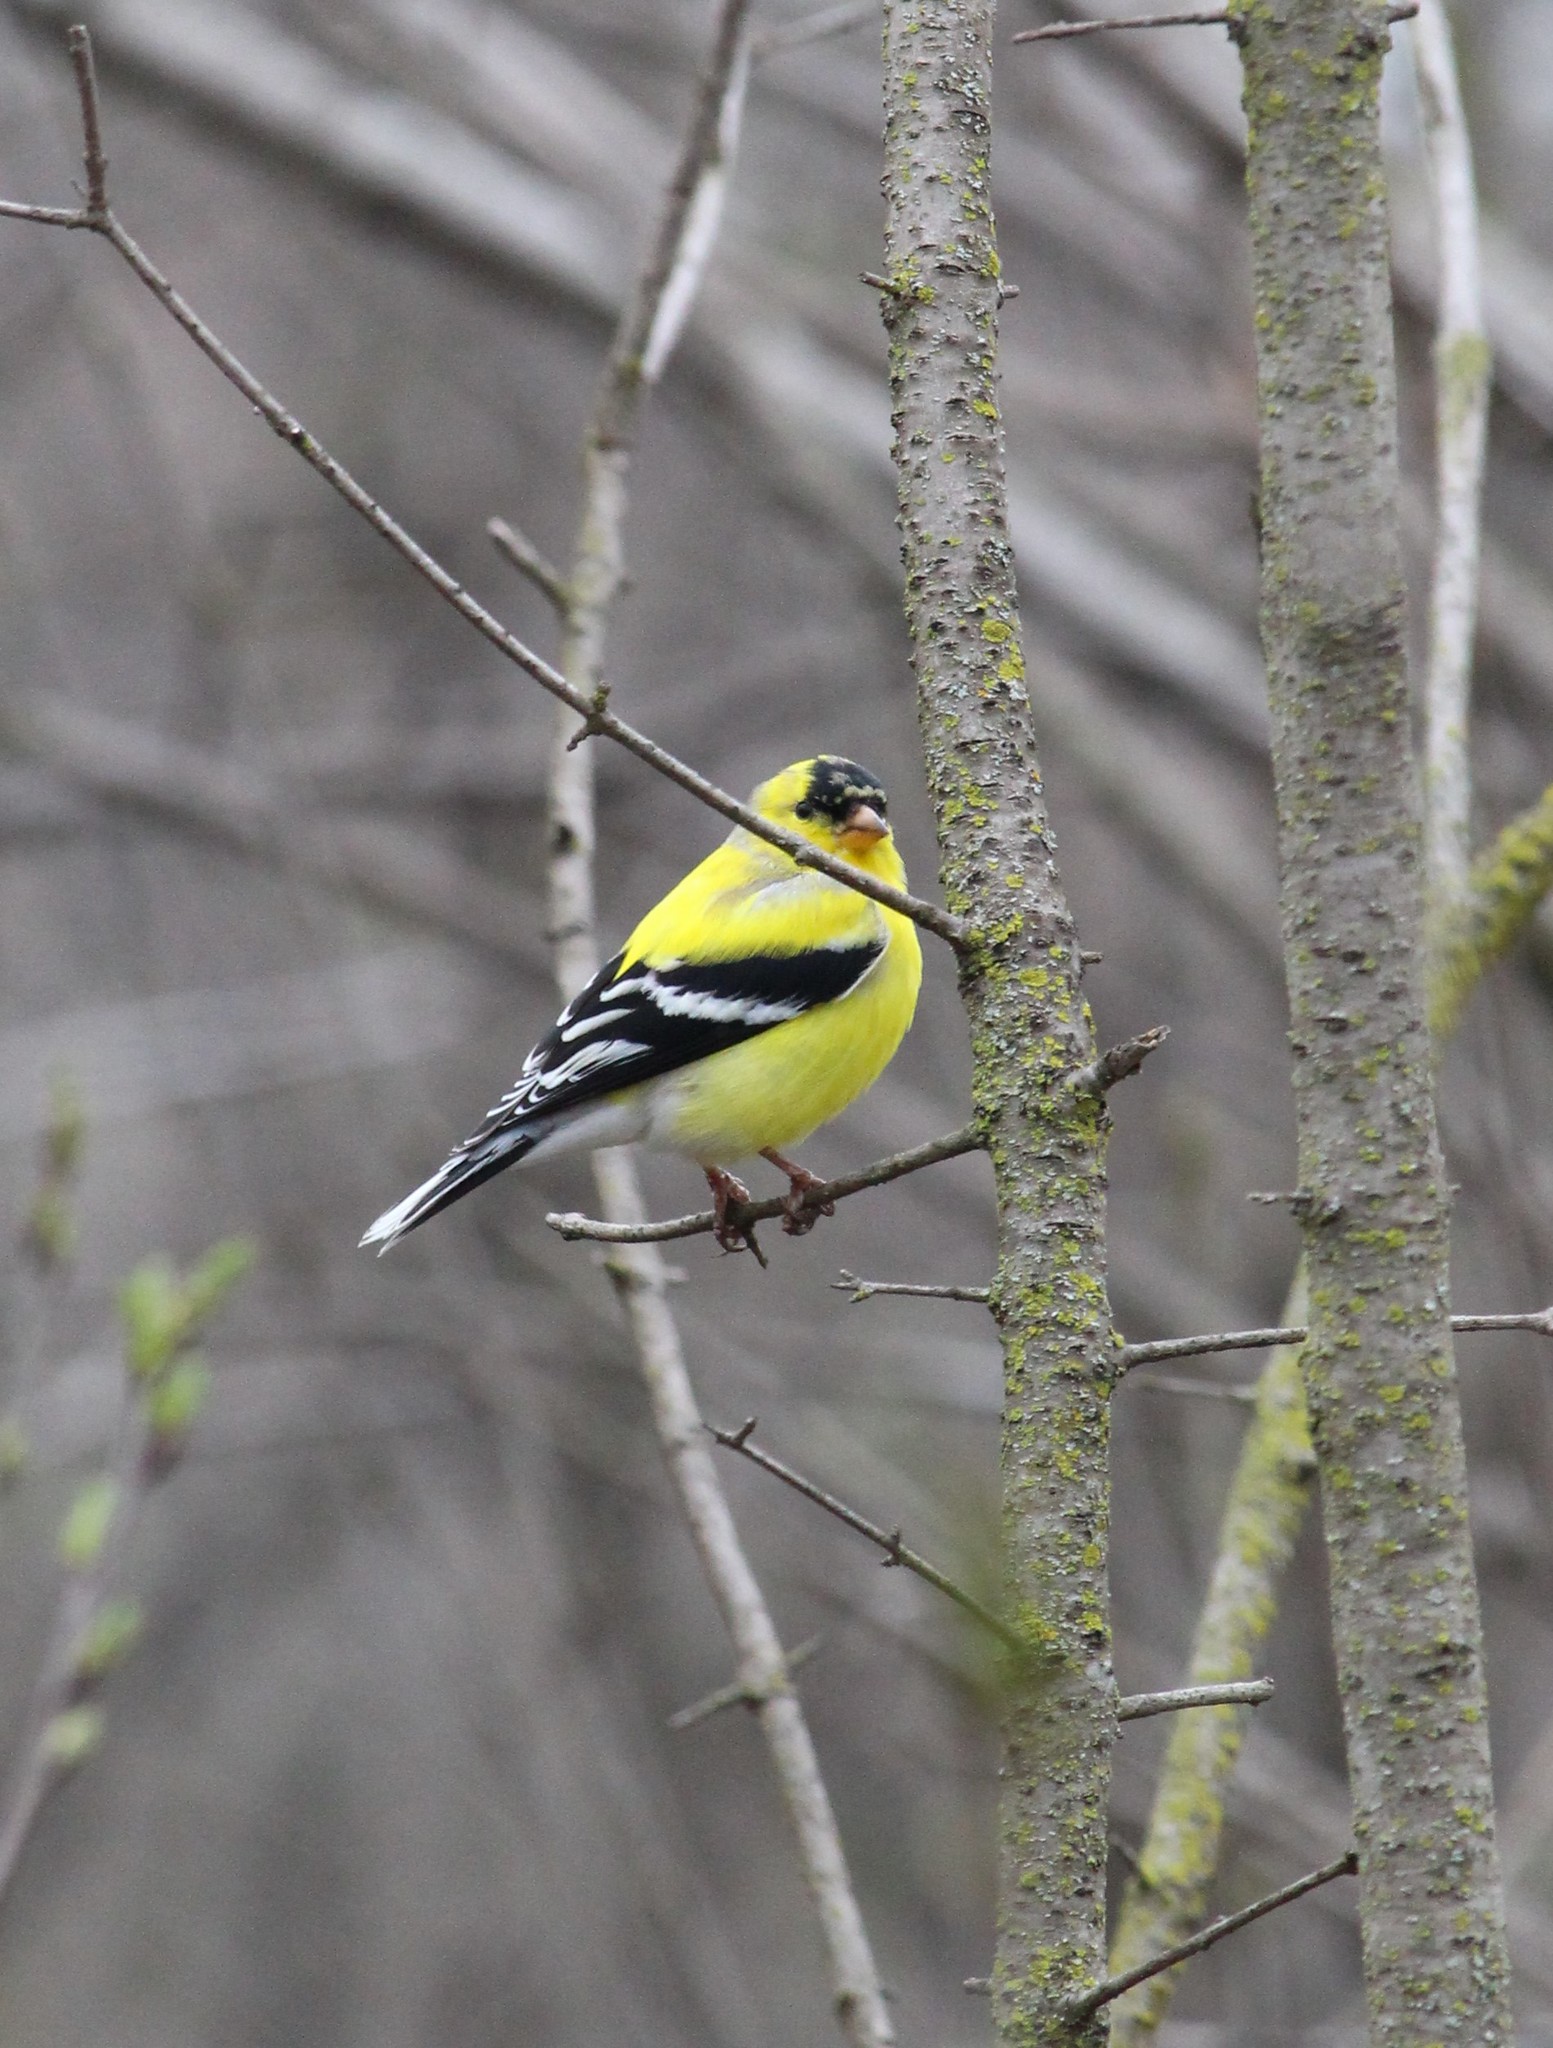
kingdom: Animalia
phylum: Chordata
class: Aves
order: Passeriformes
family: Fringillidae
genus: Spinus
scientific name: Spinus tristis
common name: American goldfinch
